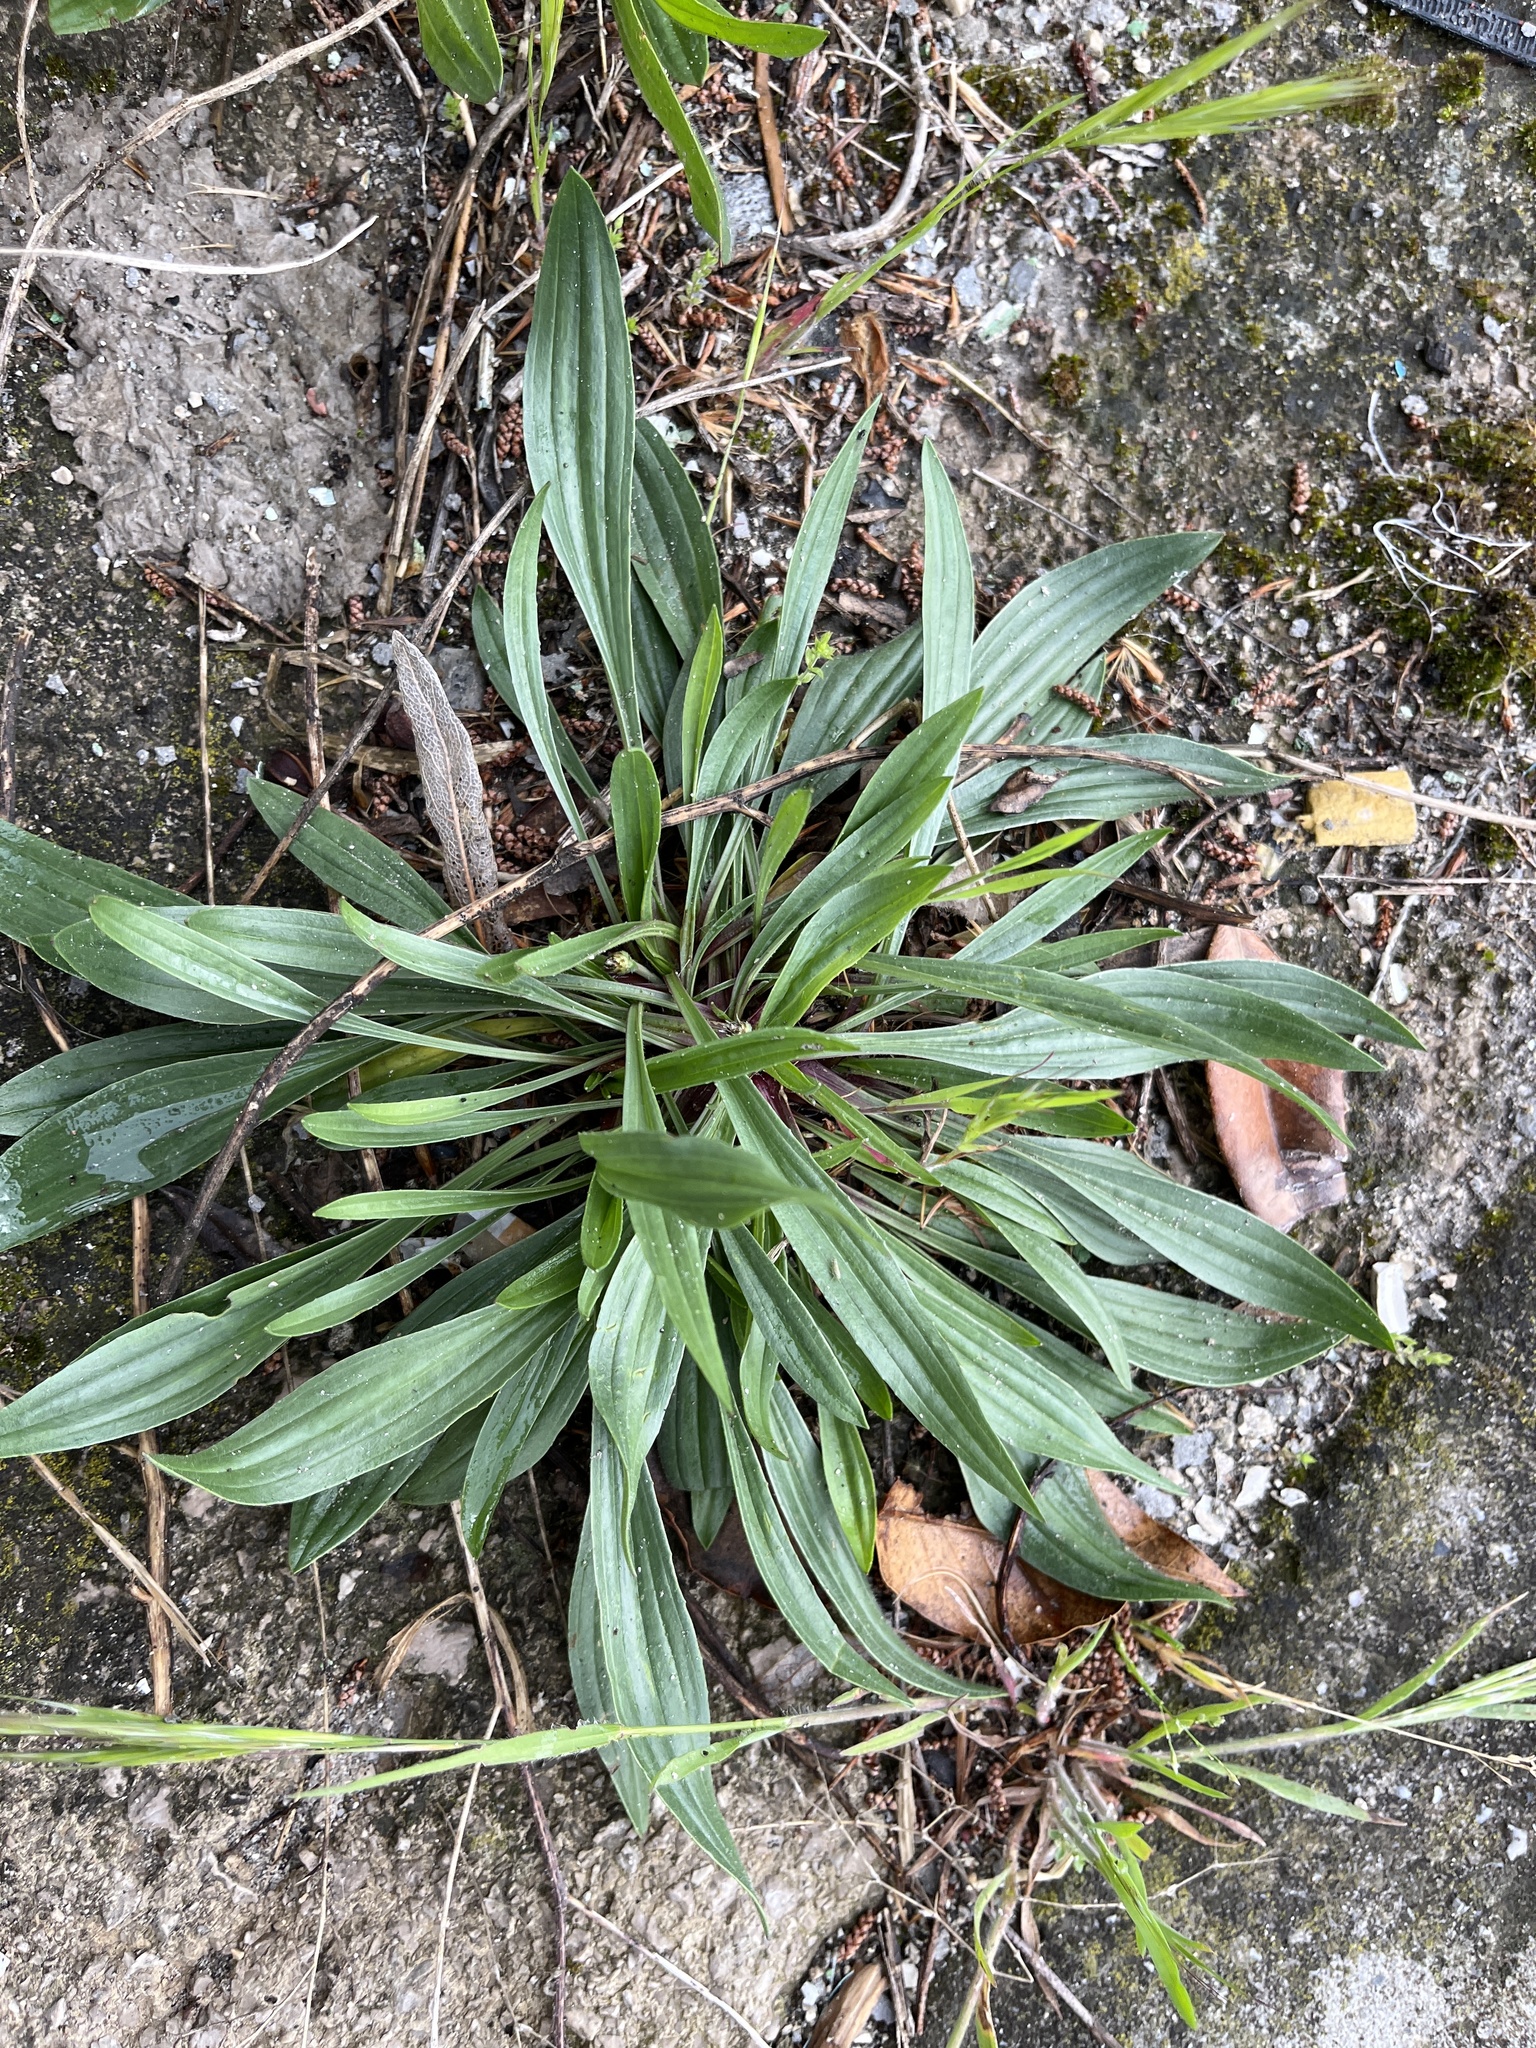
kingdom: Plantae
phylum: Tracheophyta
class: Magnoliopsida
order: Lamiales
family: Plantaginaceae
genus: Plantago
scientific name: Plantago lanceolata
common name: Ribwort plantain
